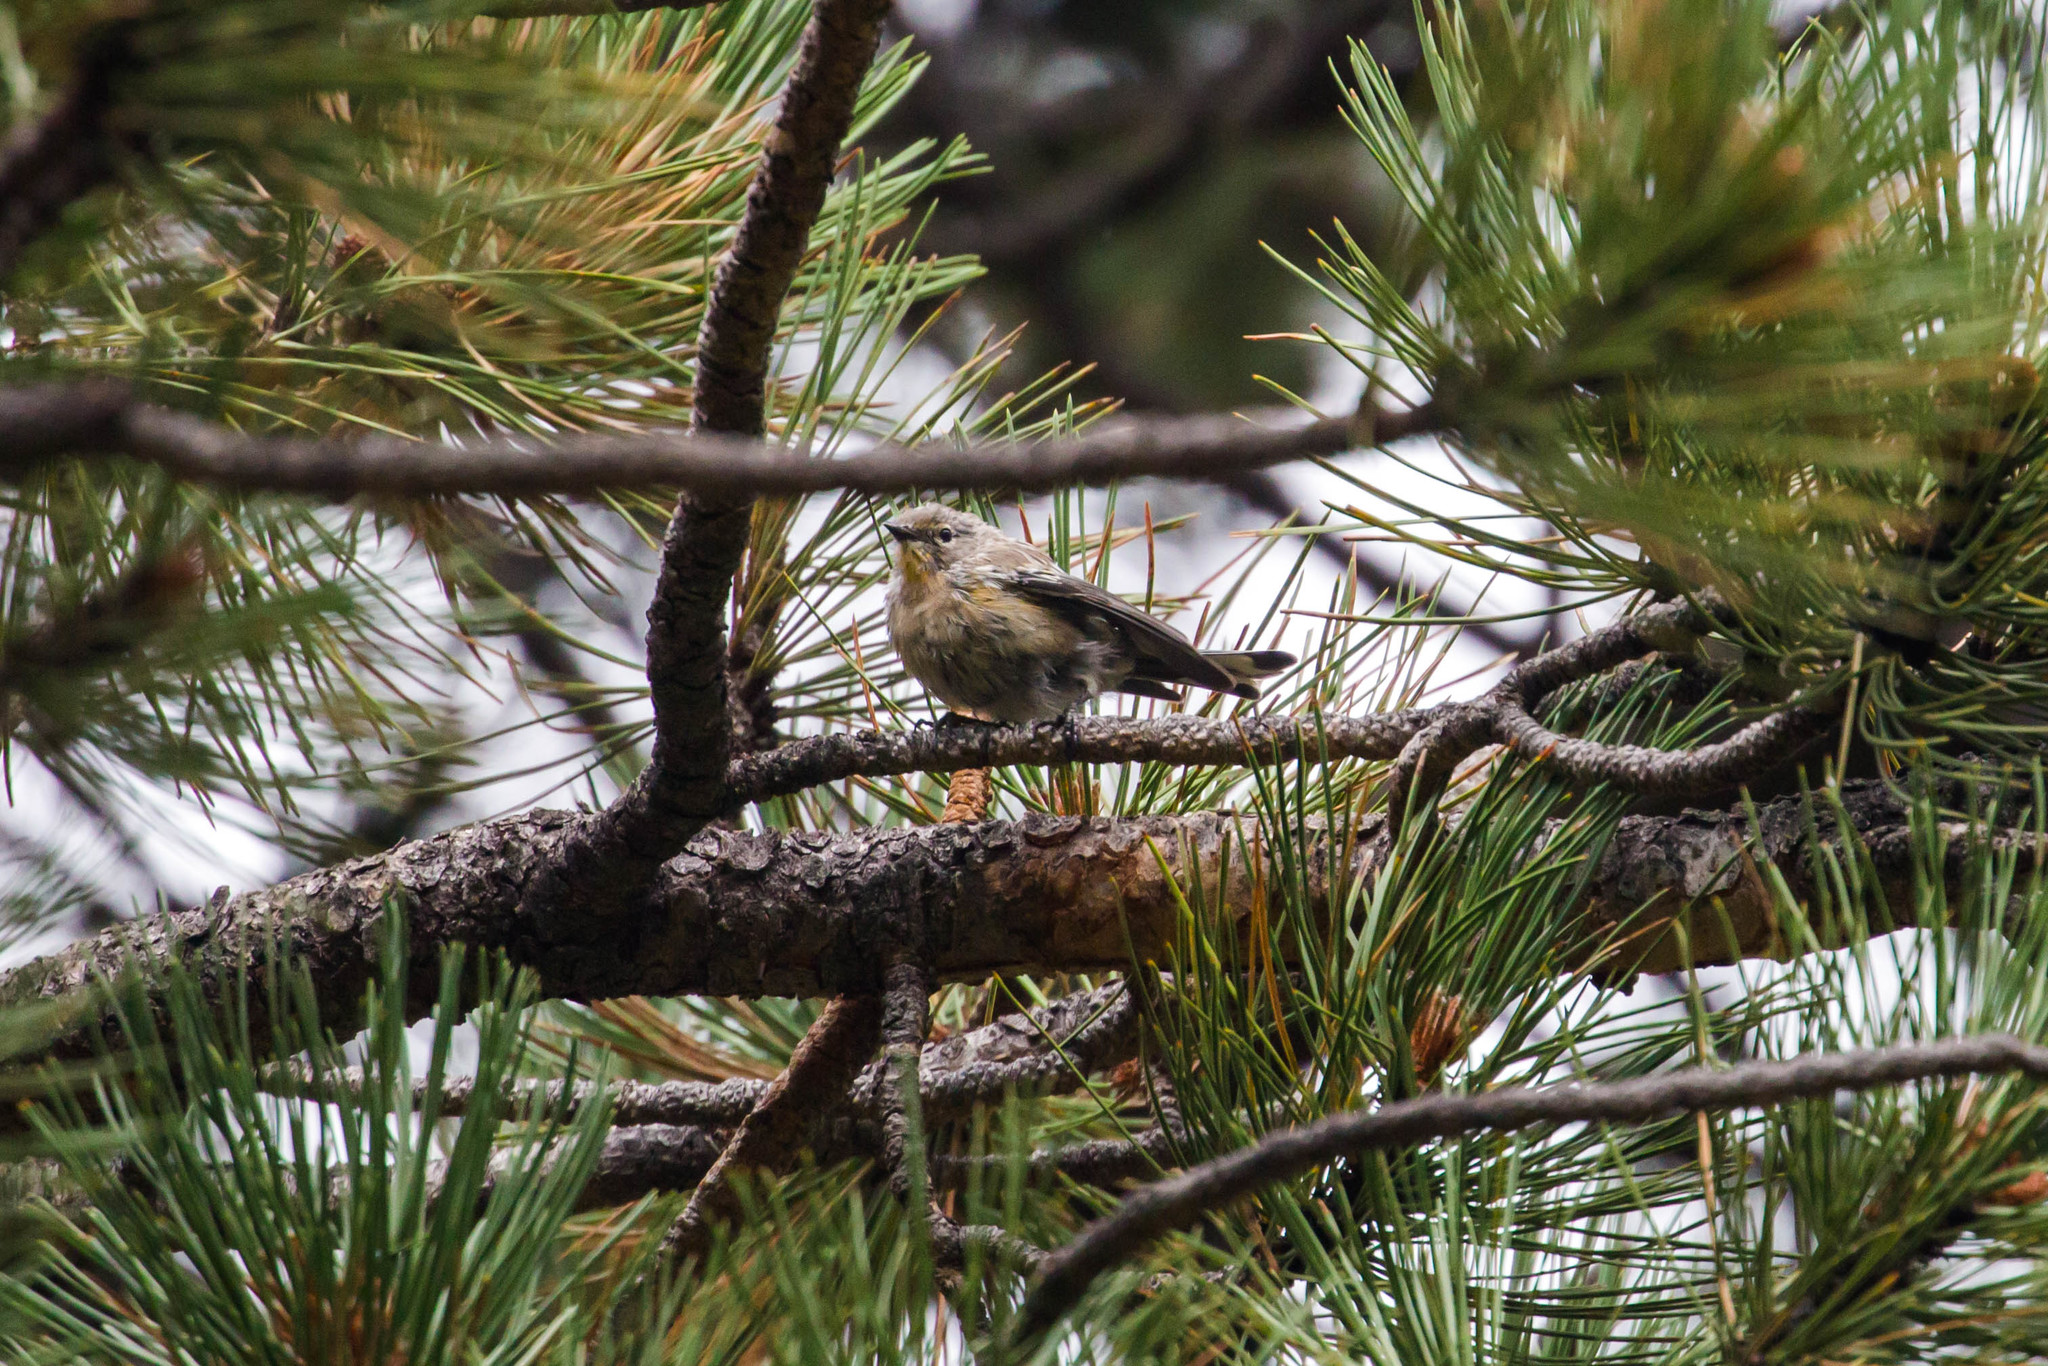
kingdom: Animalia
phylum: Chordata
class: Aves
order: Passeriformes
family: Parulidae
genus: Setophaga
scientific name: Setophaga coronata
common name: Myrtle warbler
